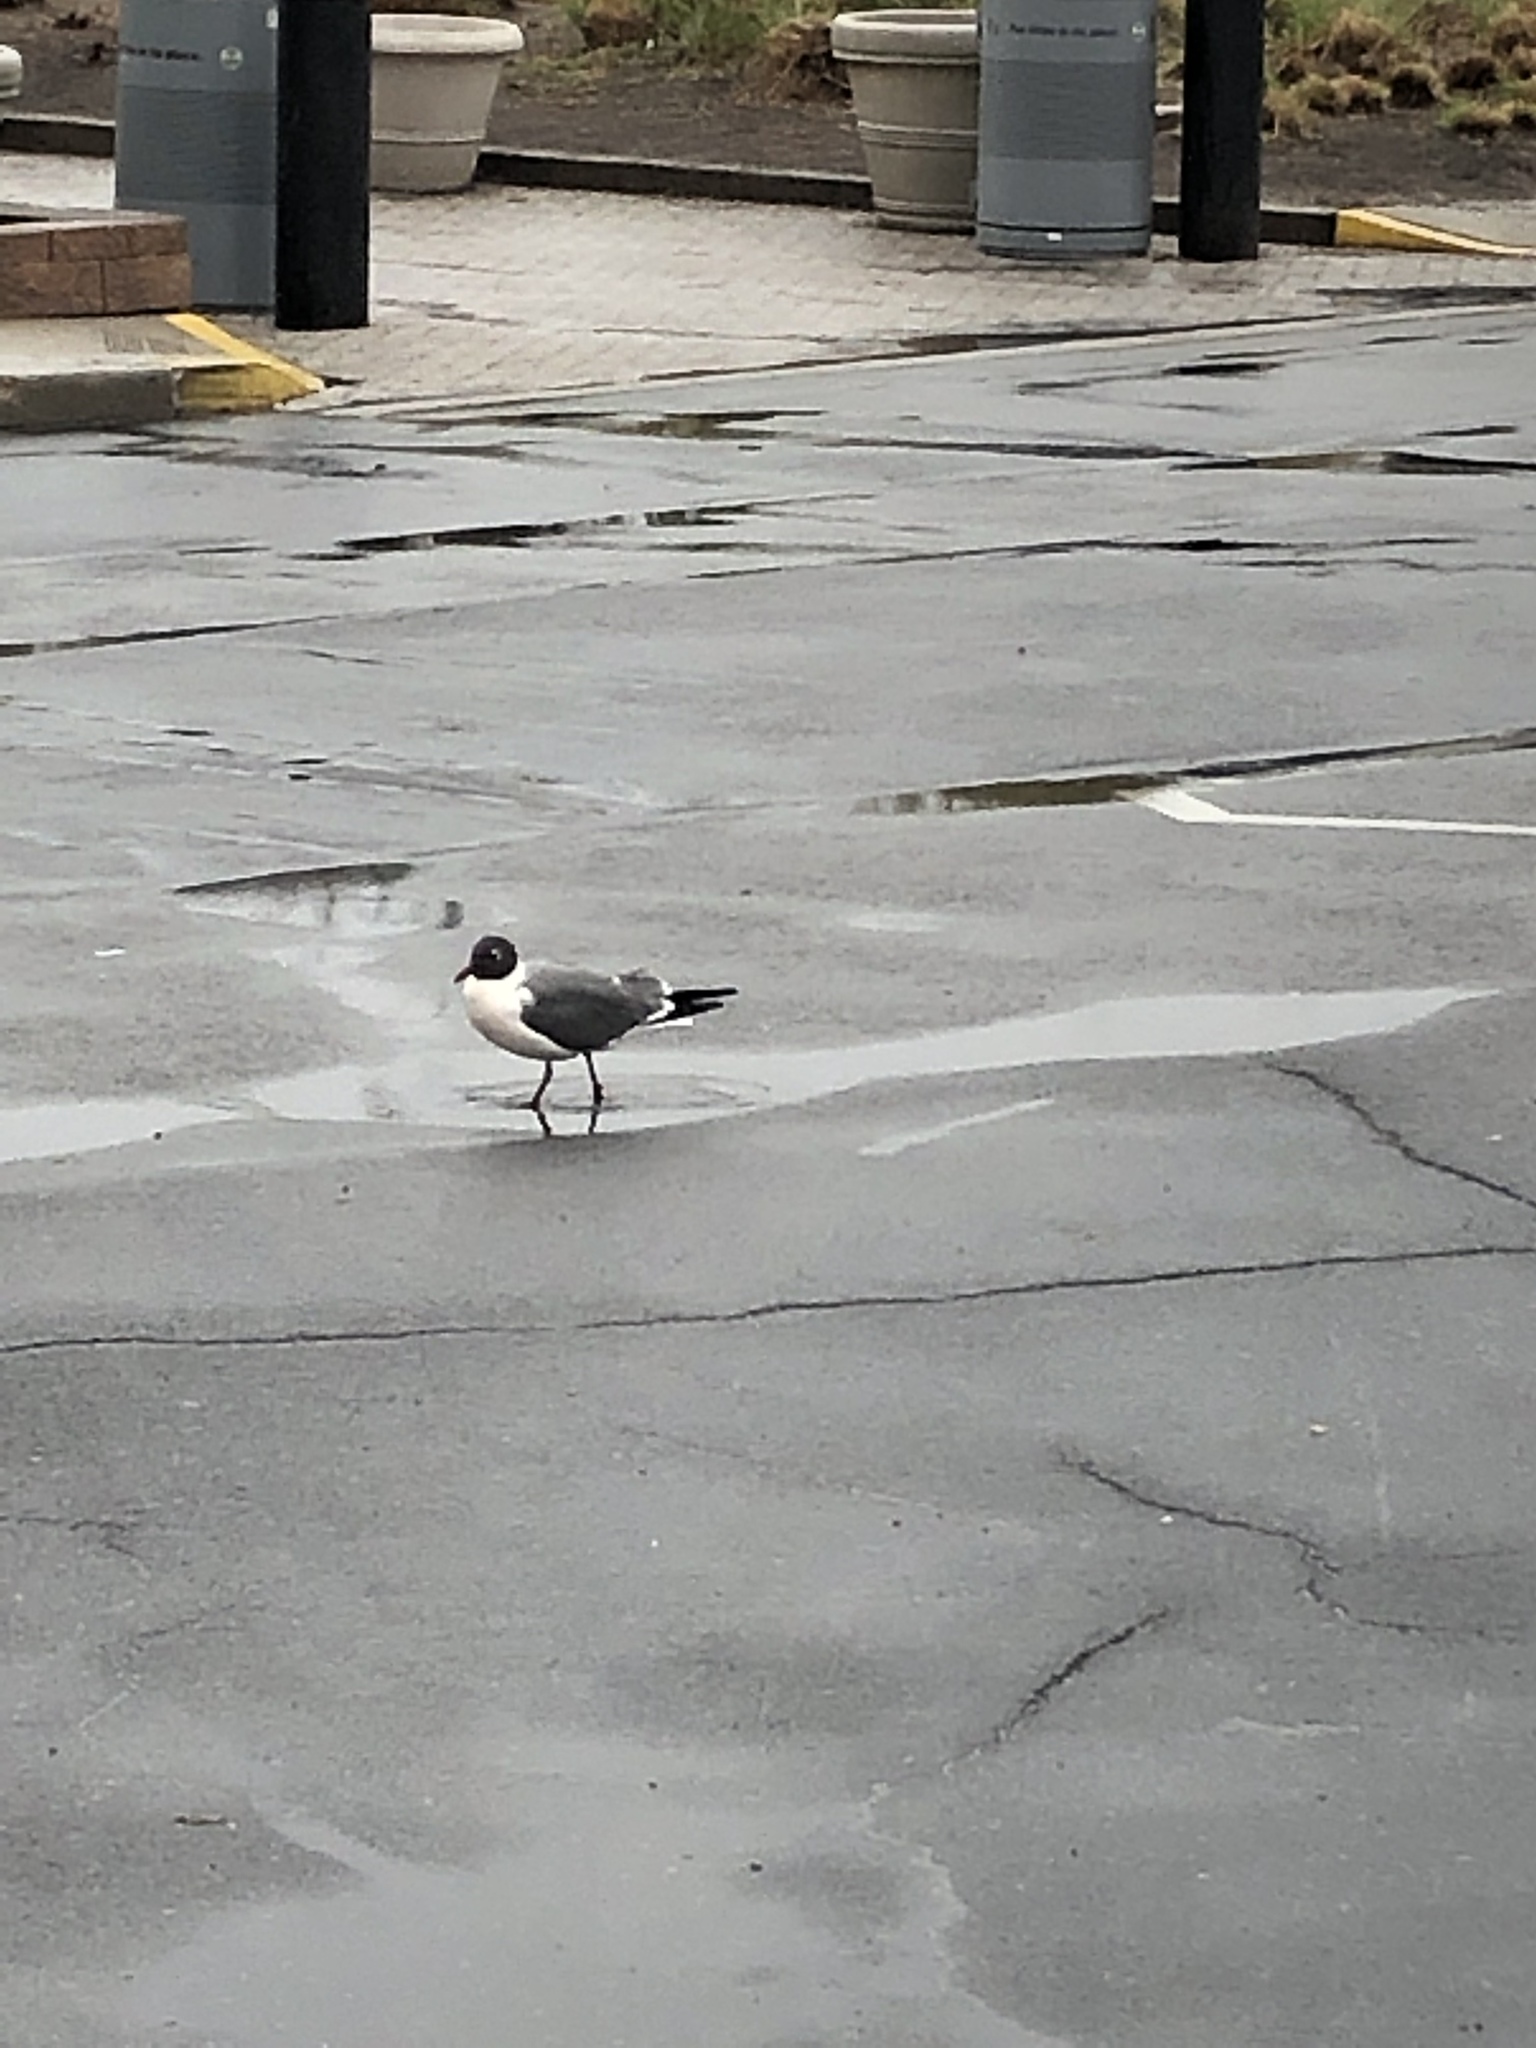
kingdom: Animalia
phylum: Chordata
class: Aves
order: Charadriiformes
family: Laridae
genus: Leucophaeus
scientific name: Leucophaeus atricilla
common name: Laughing gull
